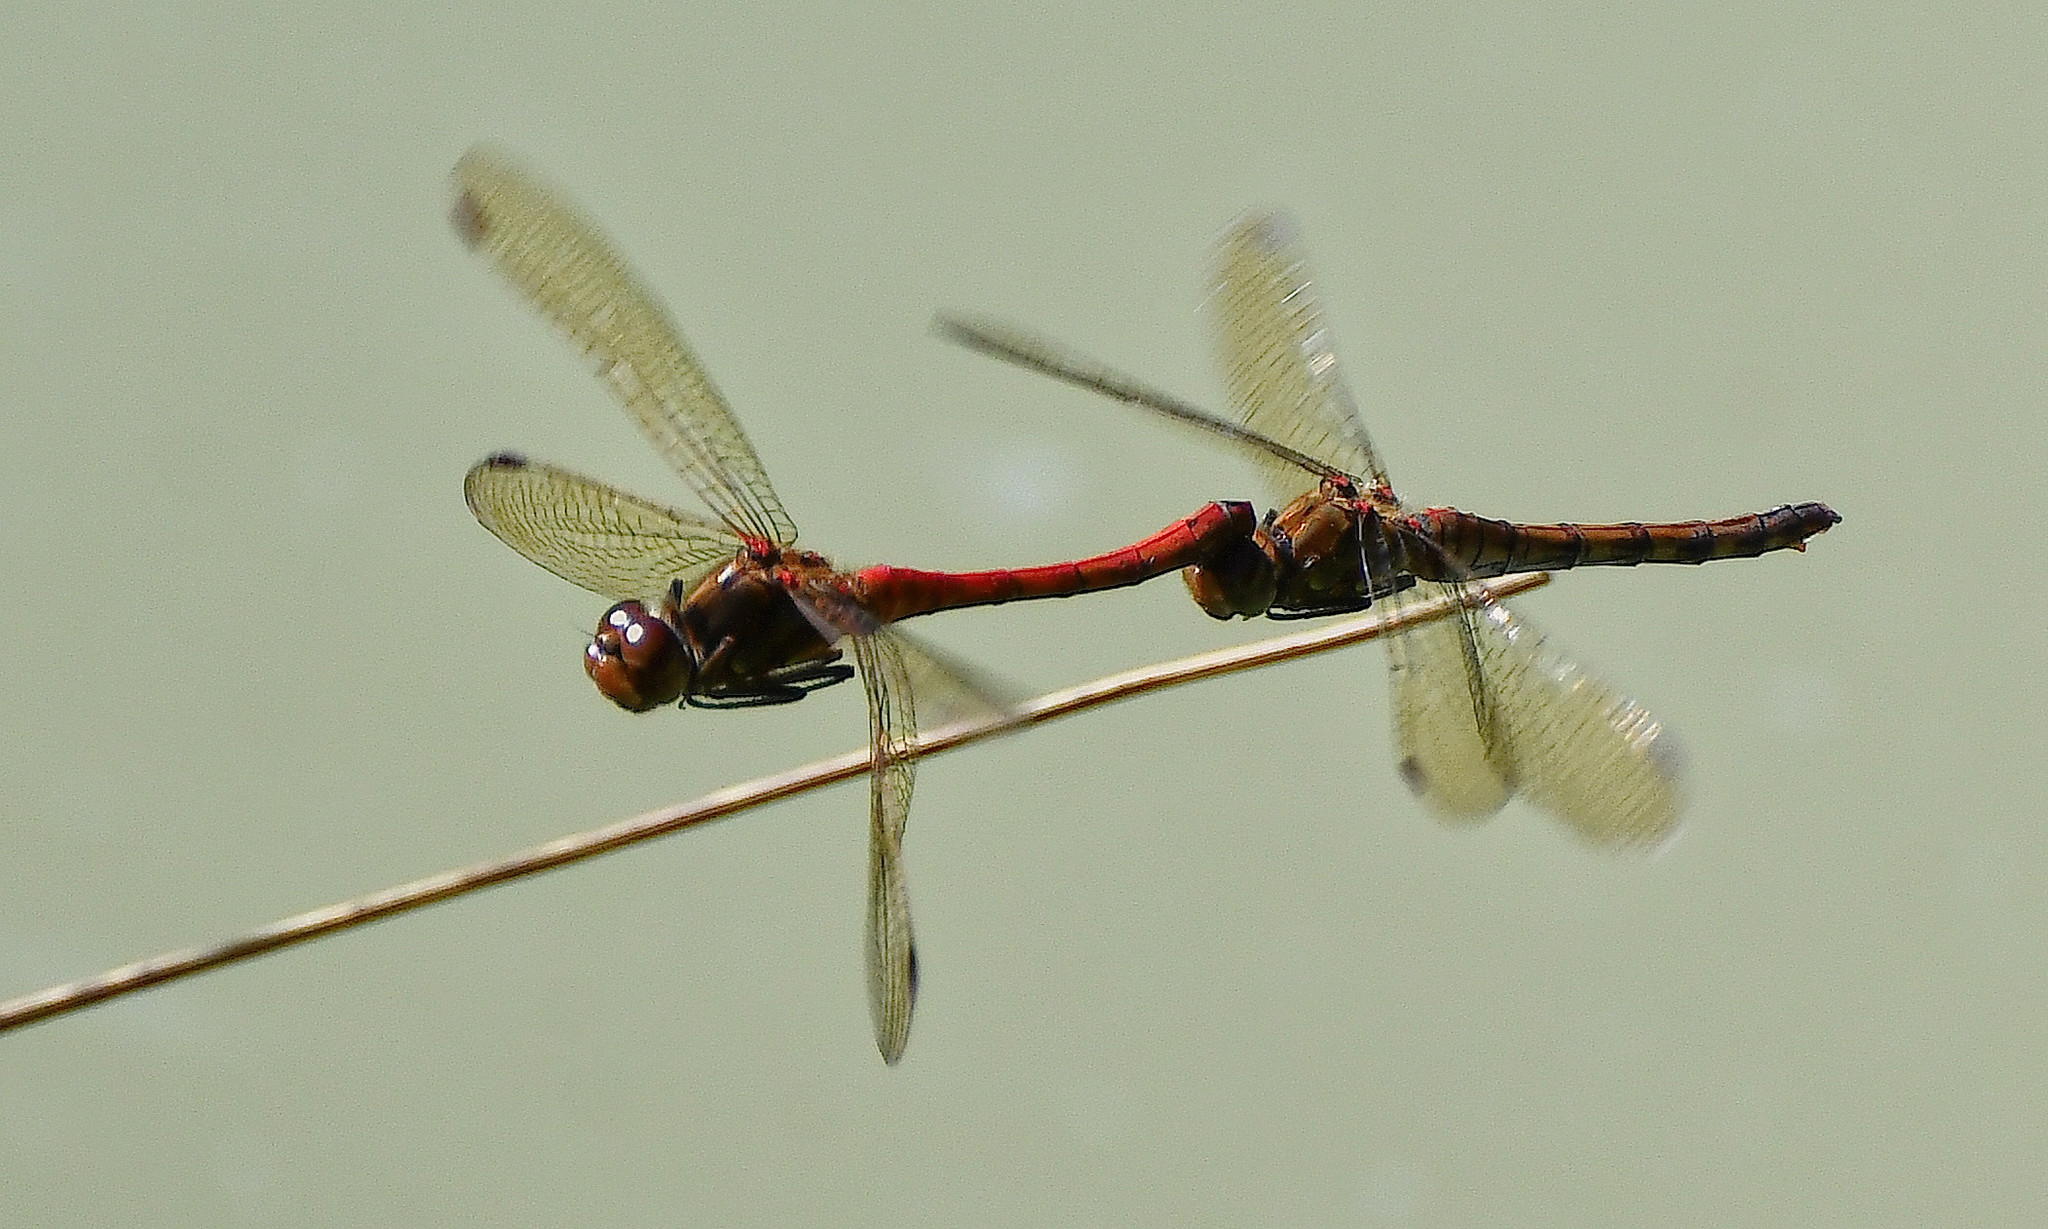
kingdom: Animalia
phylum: Arthropoda
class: Insecta
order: Odonata
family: Libellulidae
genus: Sympetrum
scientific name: Sympetrum striolatum
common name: Common darter
